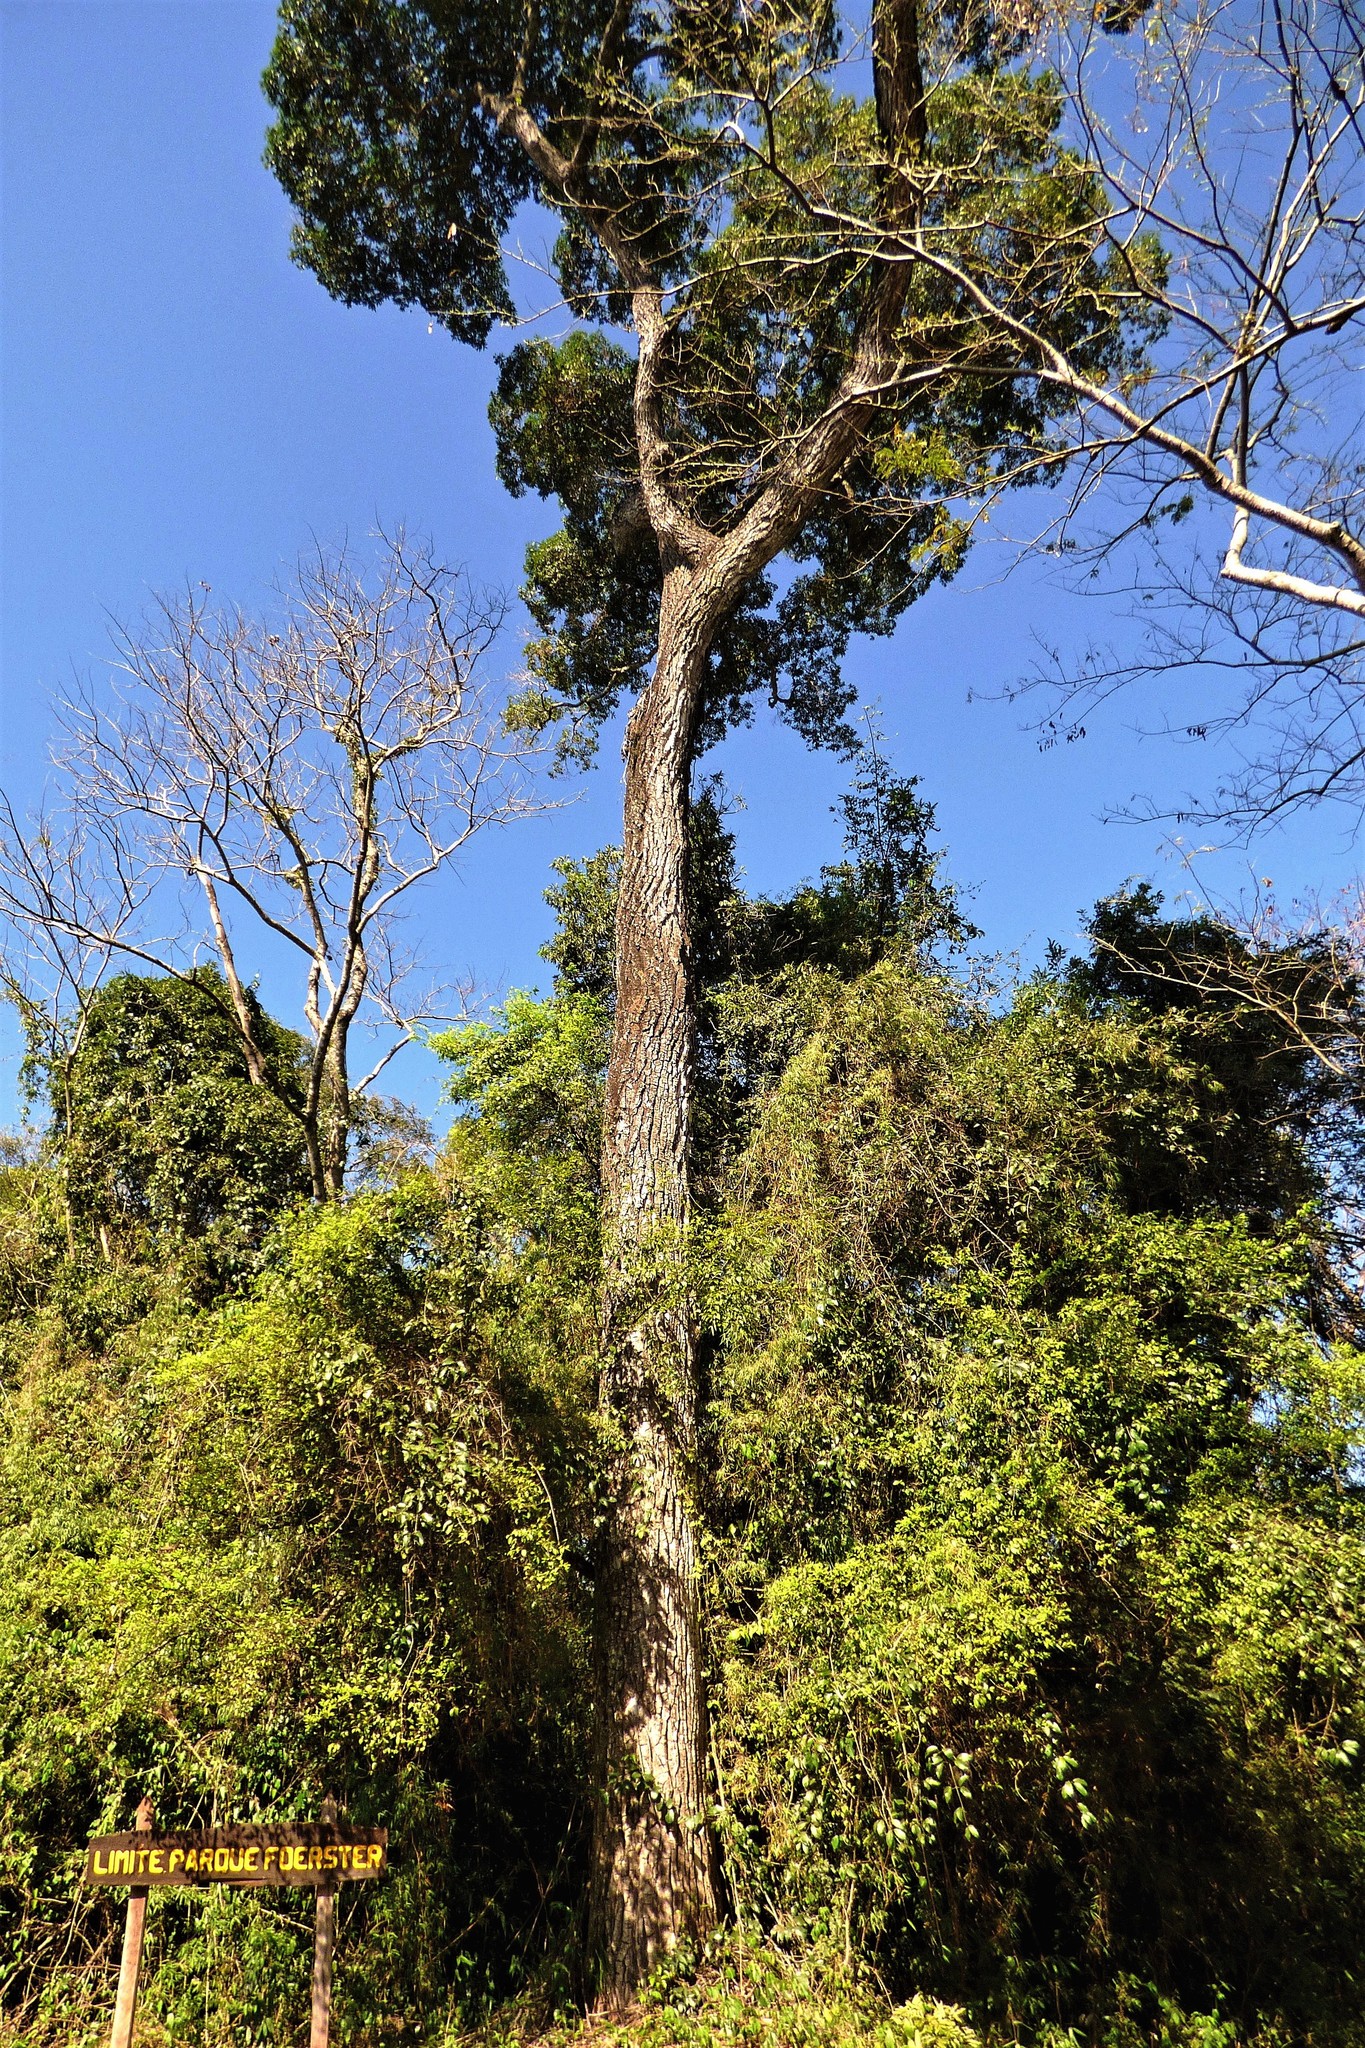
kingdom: Plantae
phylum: Tracheophyta
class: Magnoliopsida
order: Gentianales
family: Apocynaceae
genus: Aspidosperma
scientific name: Aspidosperma polyneuron
